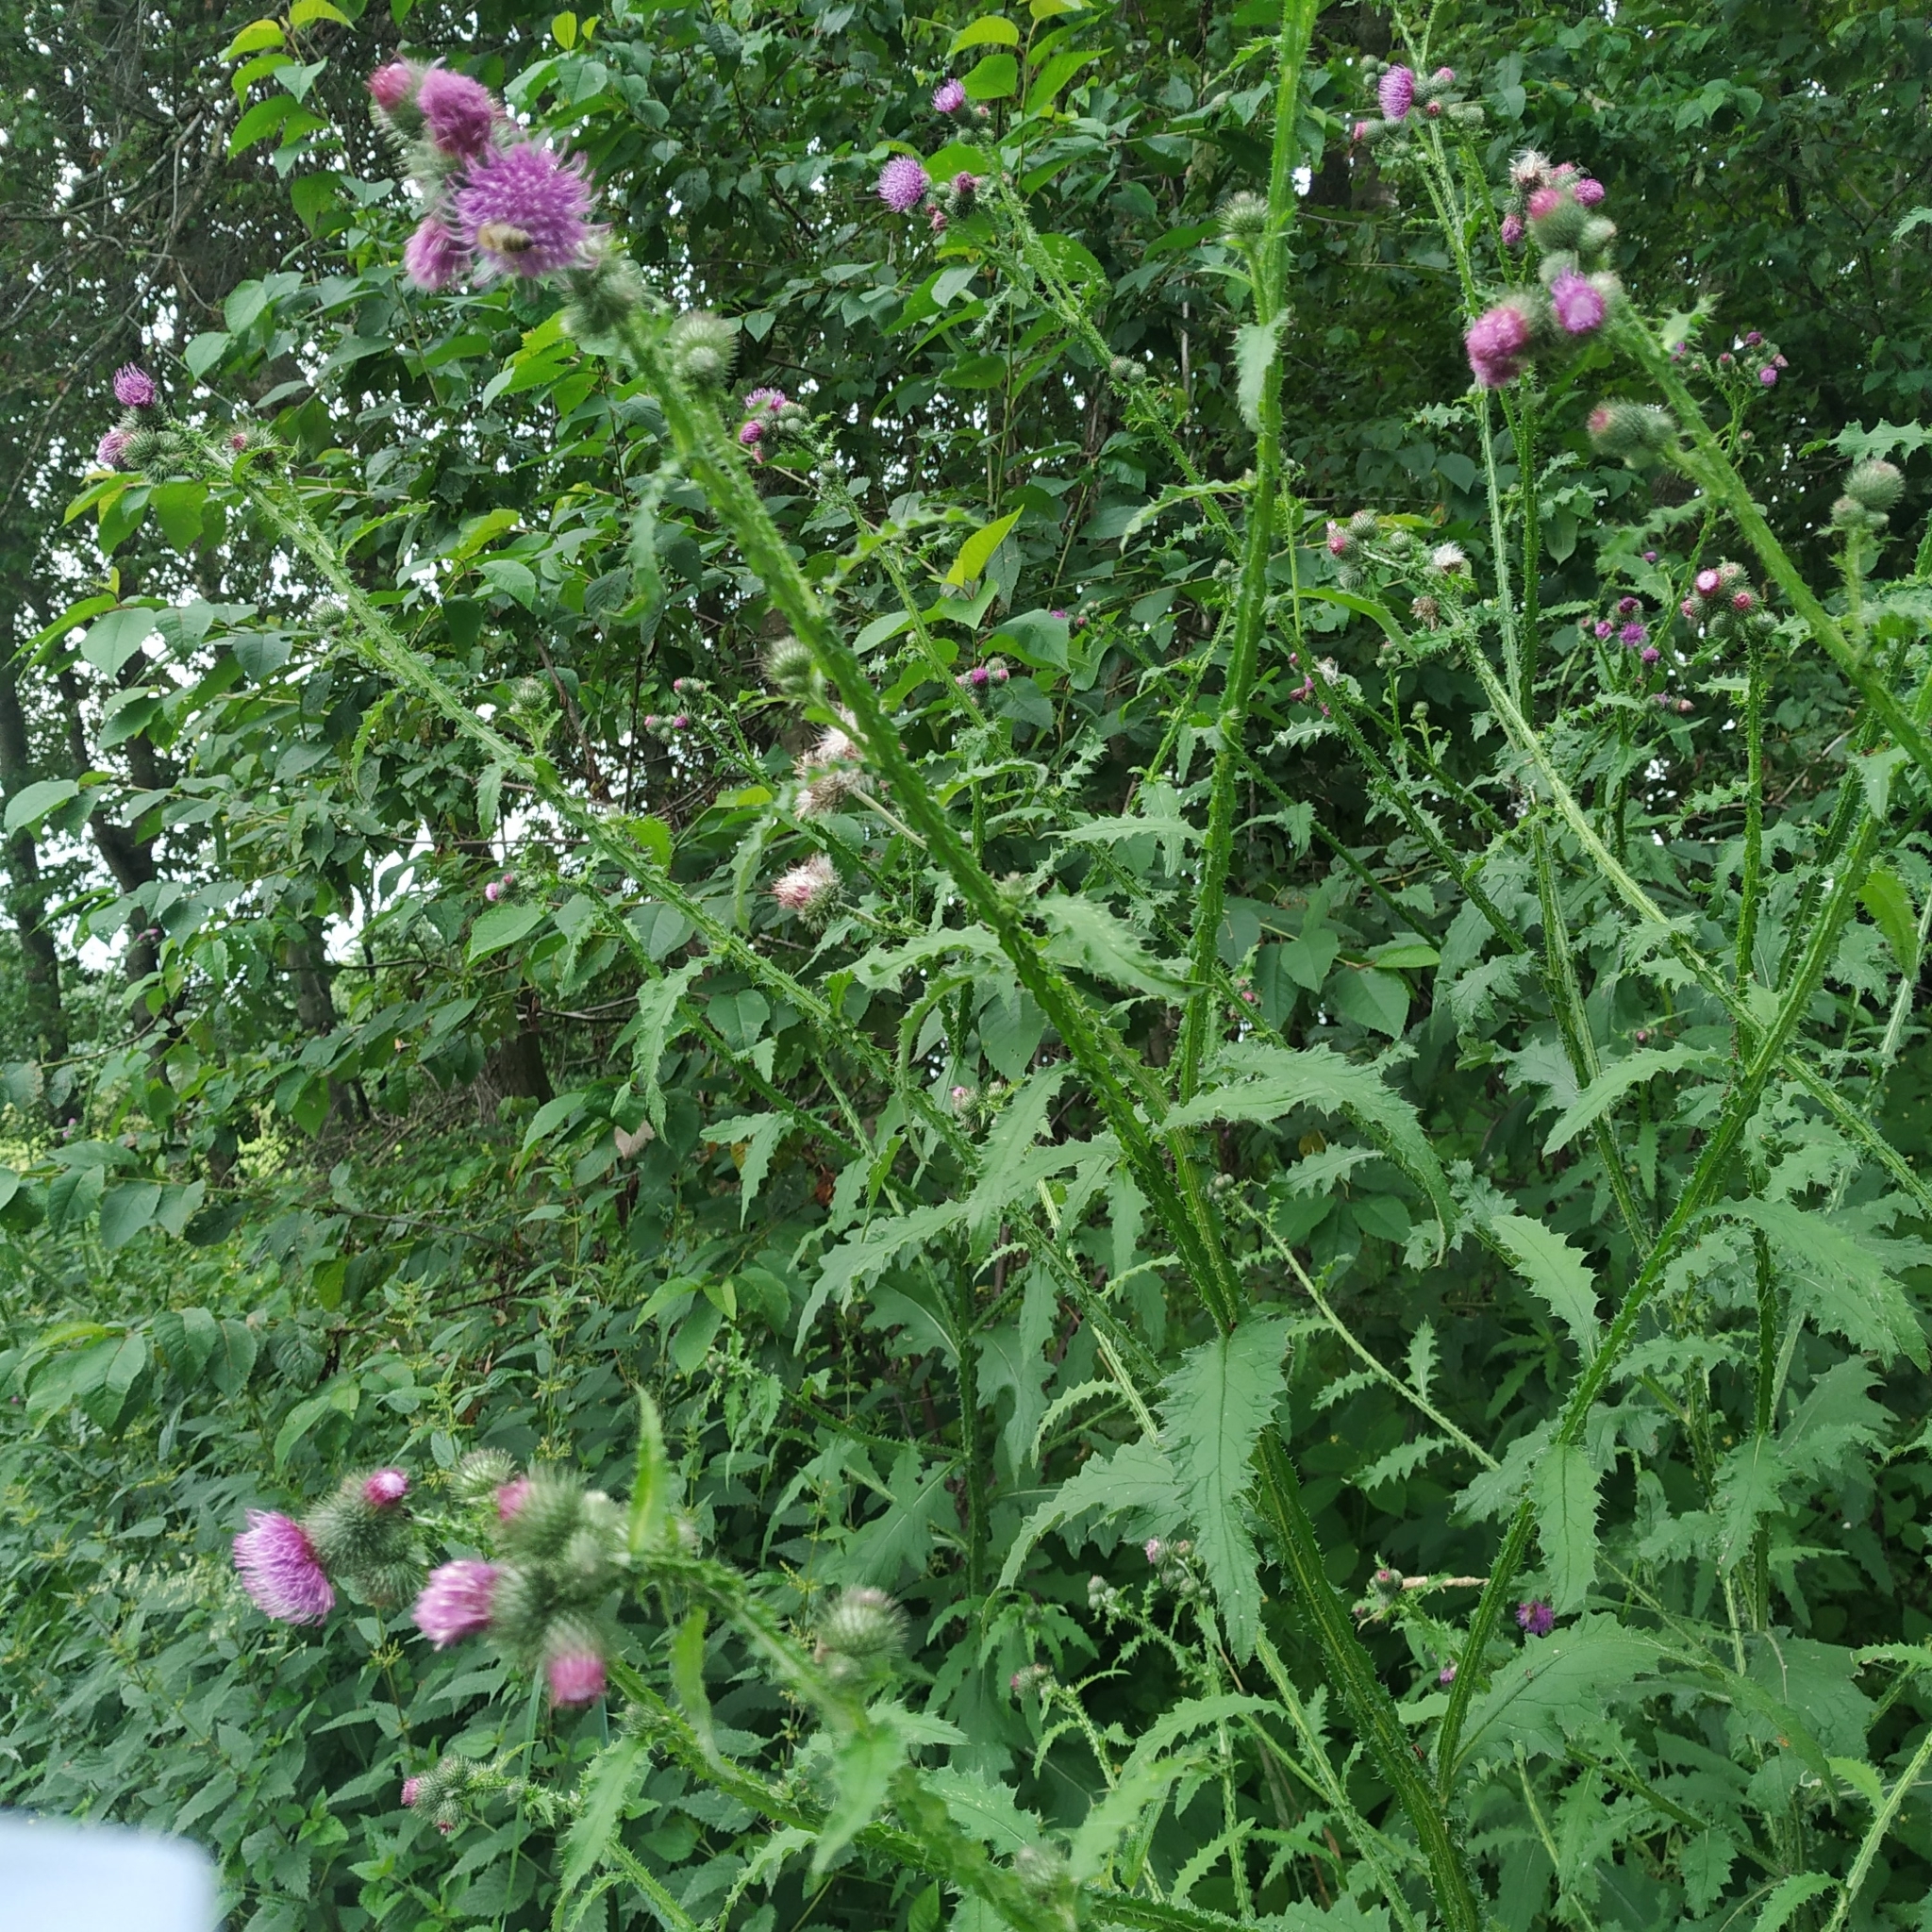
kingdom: Plantae
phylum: Tracheophyta
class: Magnoliopsida
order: Asterales
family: Asteraceae
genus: Carduus
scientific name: Carduus crispus
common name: Welted thistle
